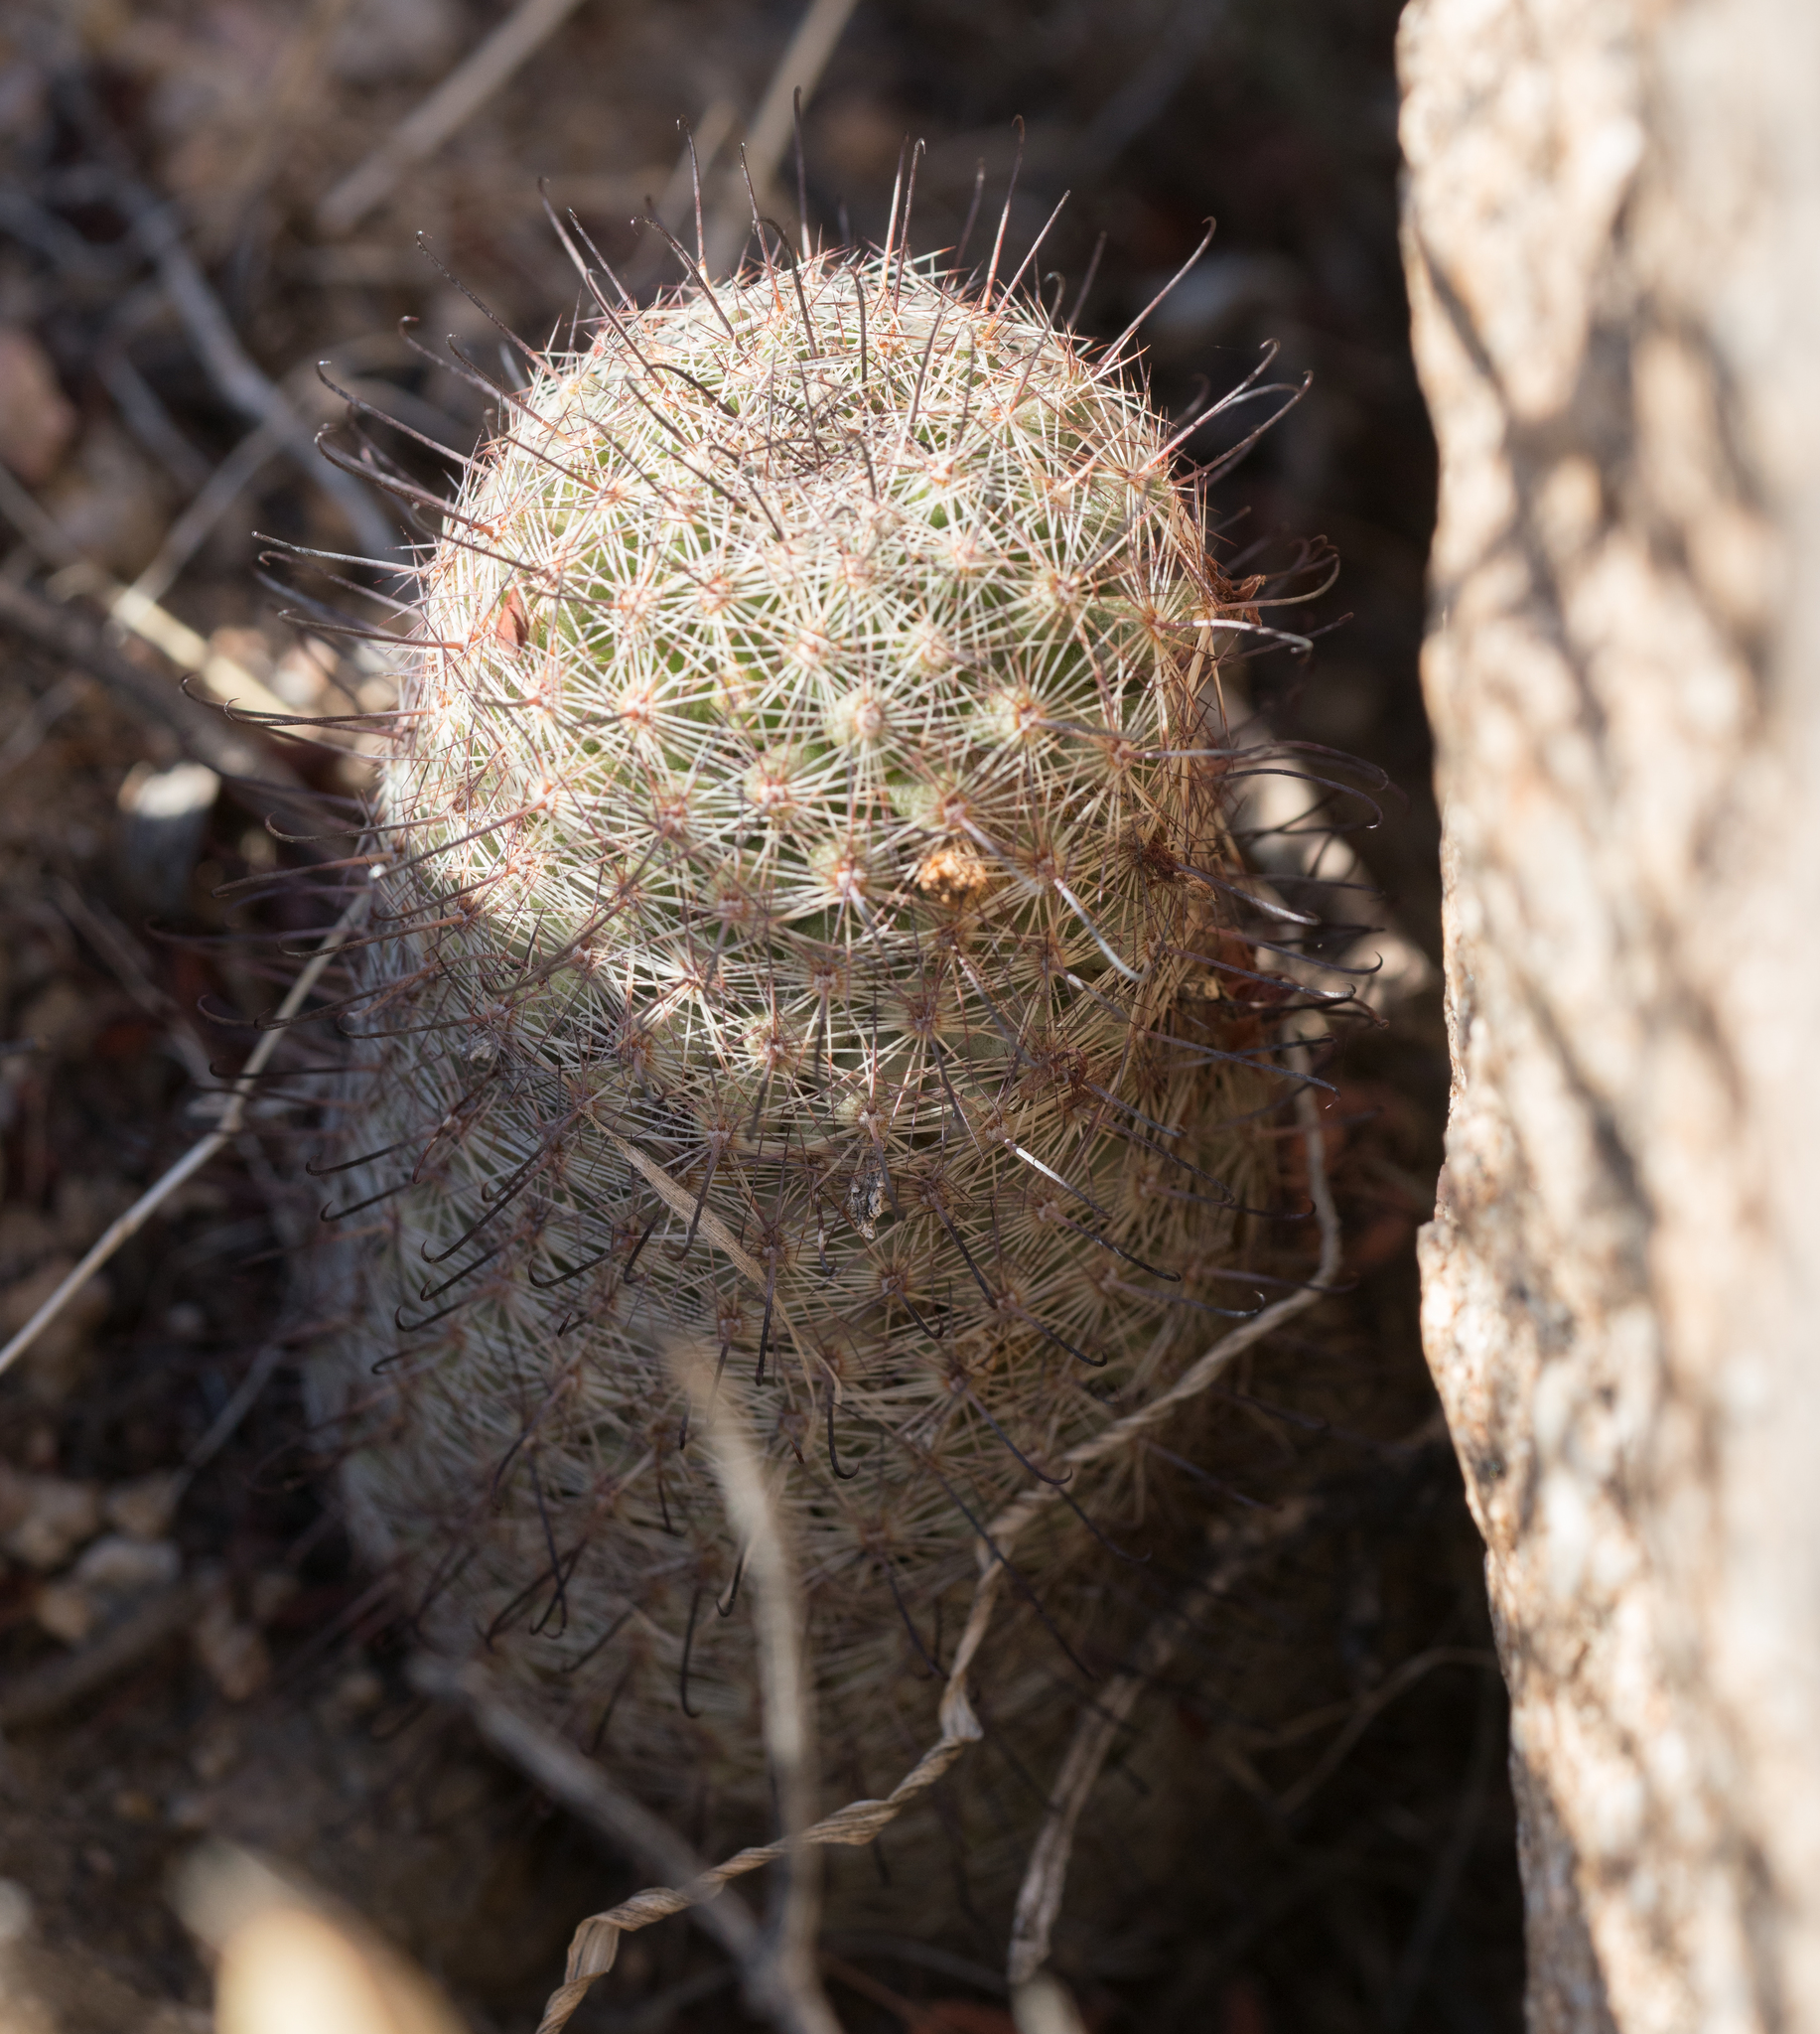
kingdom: Plantae
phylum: Tracheophyta
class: Magnoliopsida
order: Caryophyllales
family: Cactaceae
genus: Cochemiea
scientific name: Cochemiea grahamii
